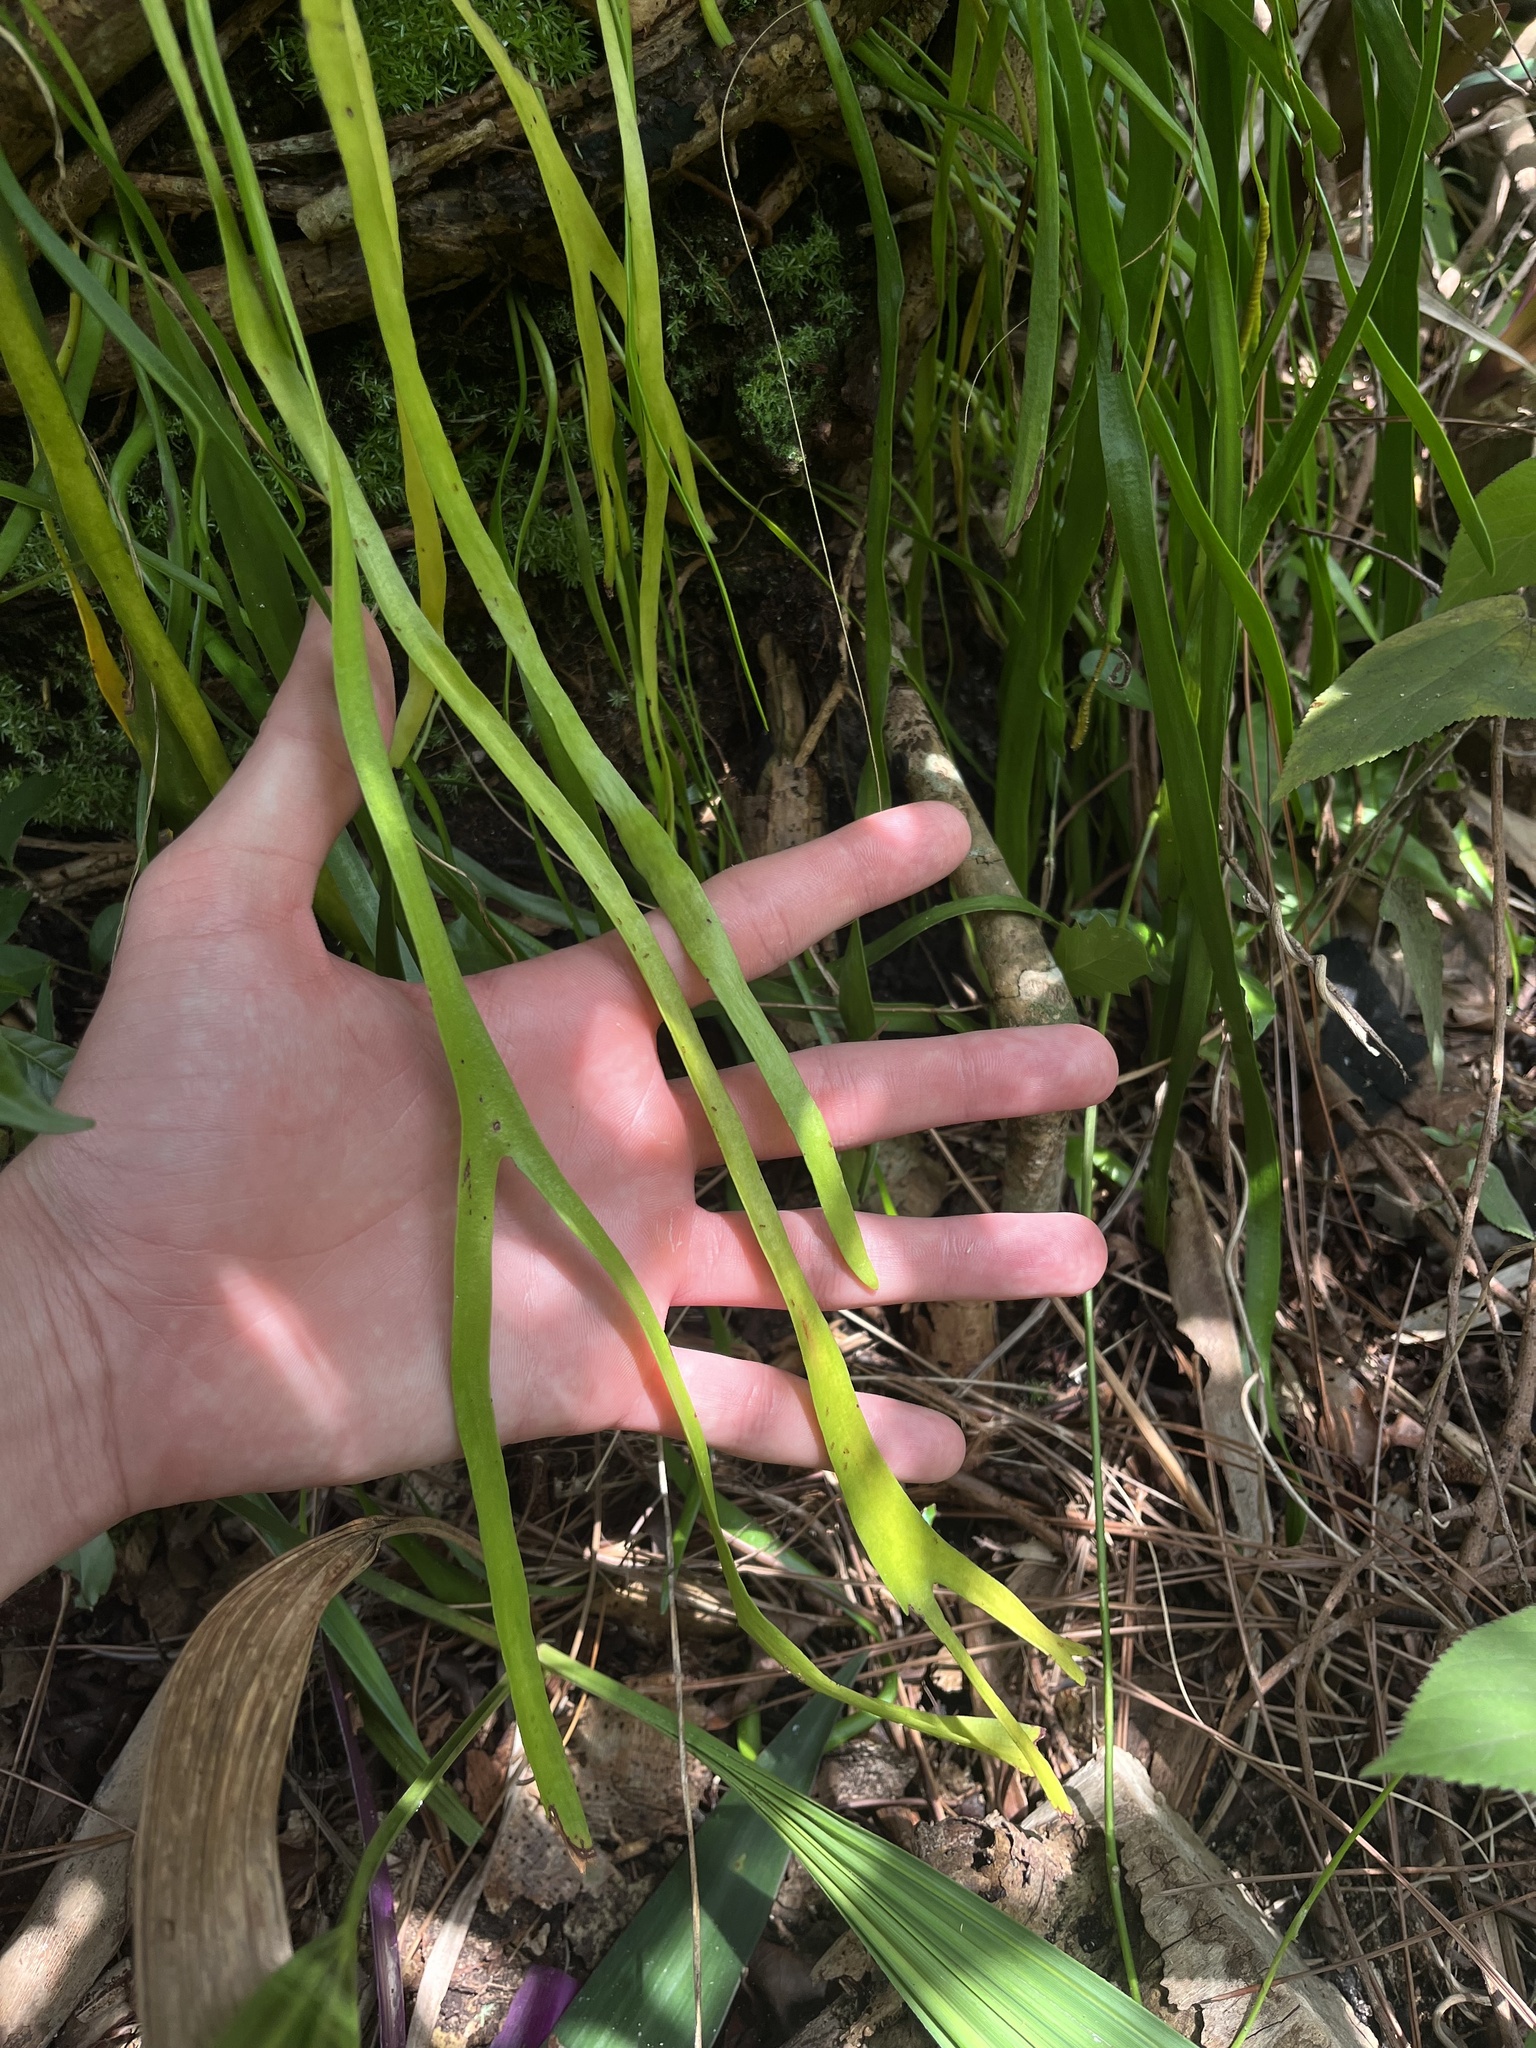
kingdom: Plantae
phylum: Tracheophyta
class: Polypodiopsida
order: Ophioglossales
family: Ophioglossaceae
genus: Ophioderma
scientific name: Ophioderma pendulum
